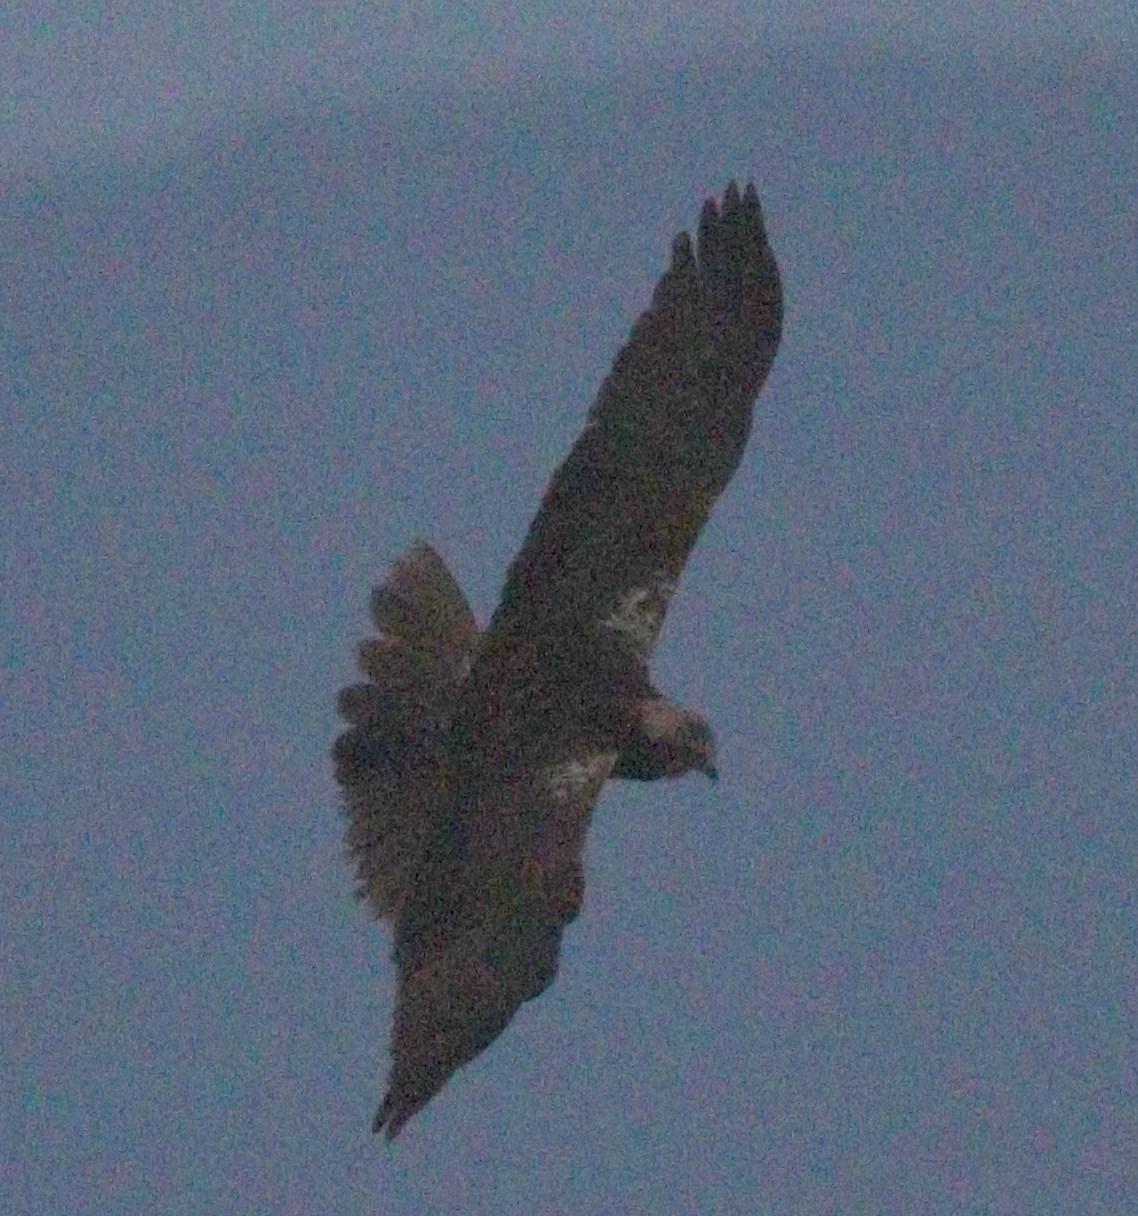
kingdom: Animalia
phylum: Chordata
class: Aves
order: Accipitriformes
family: Accipitridae
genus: Circus
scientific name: Circus aeruginosus
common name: Western marsh harrier
